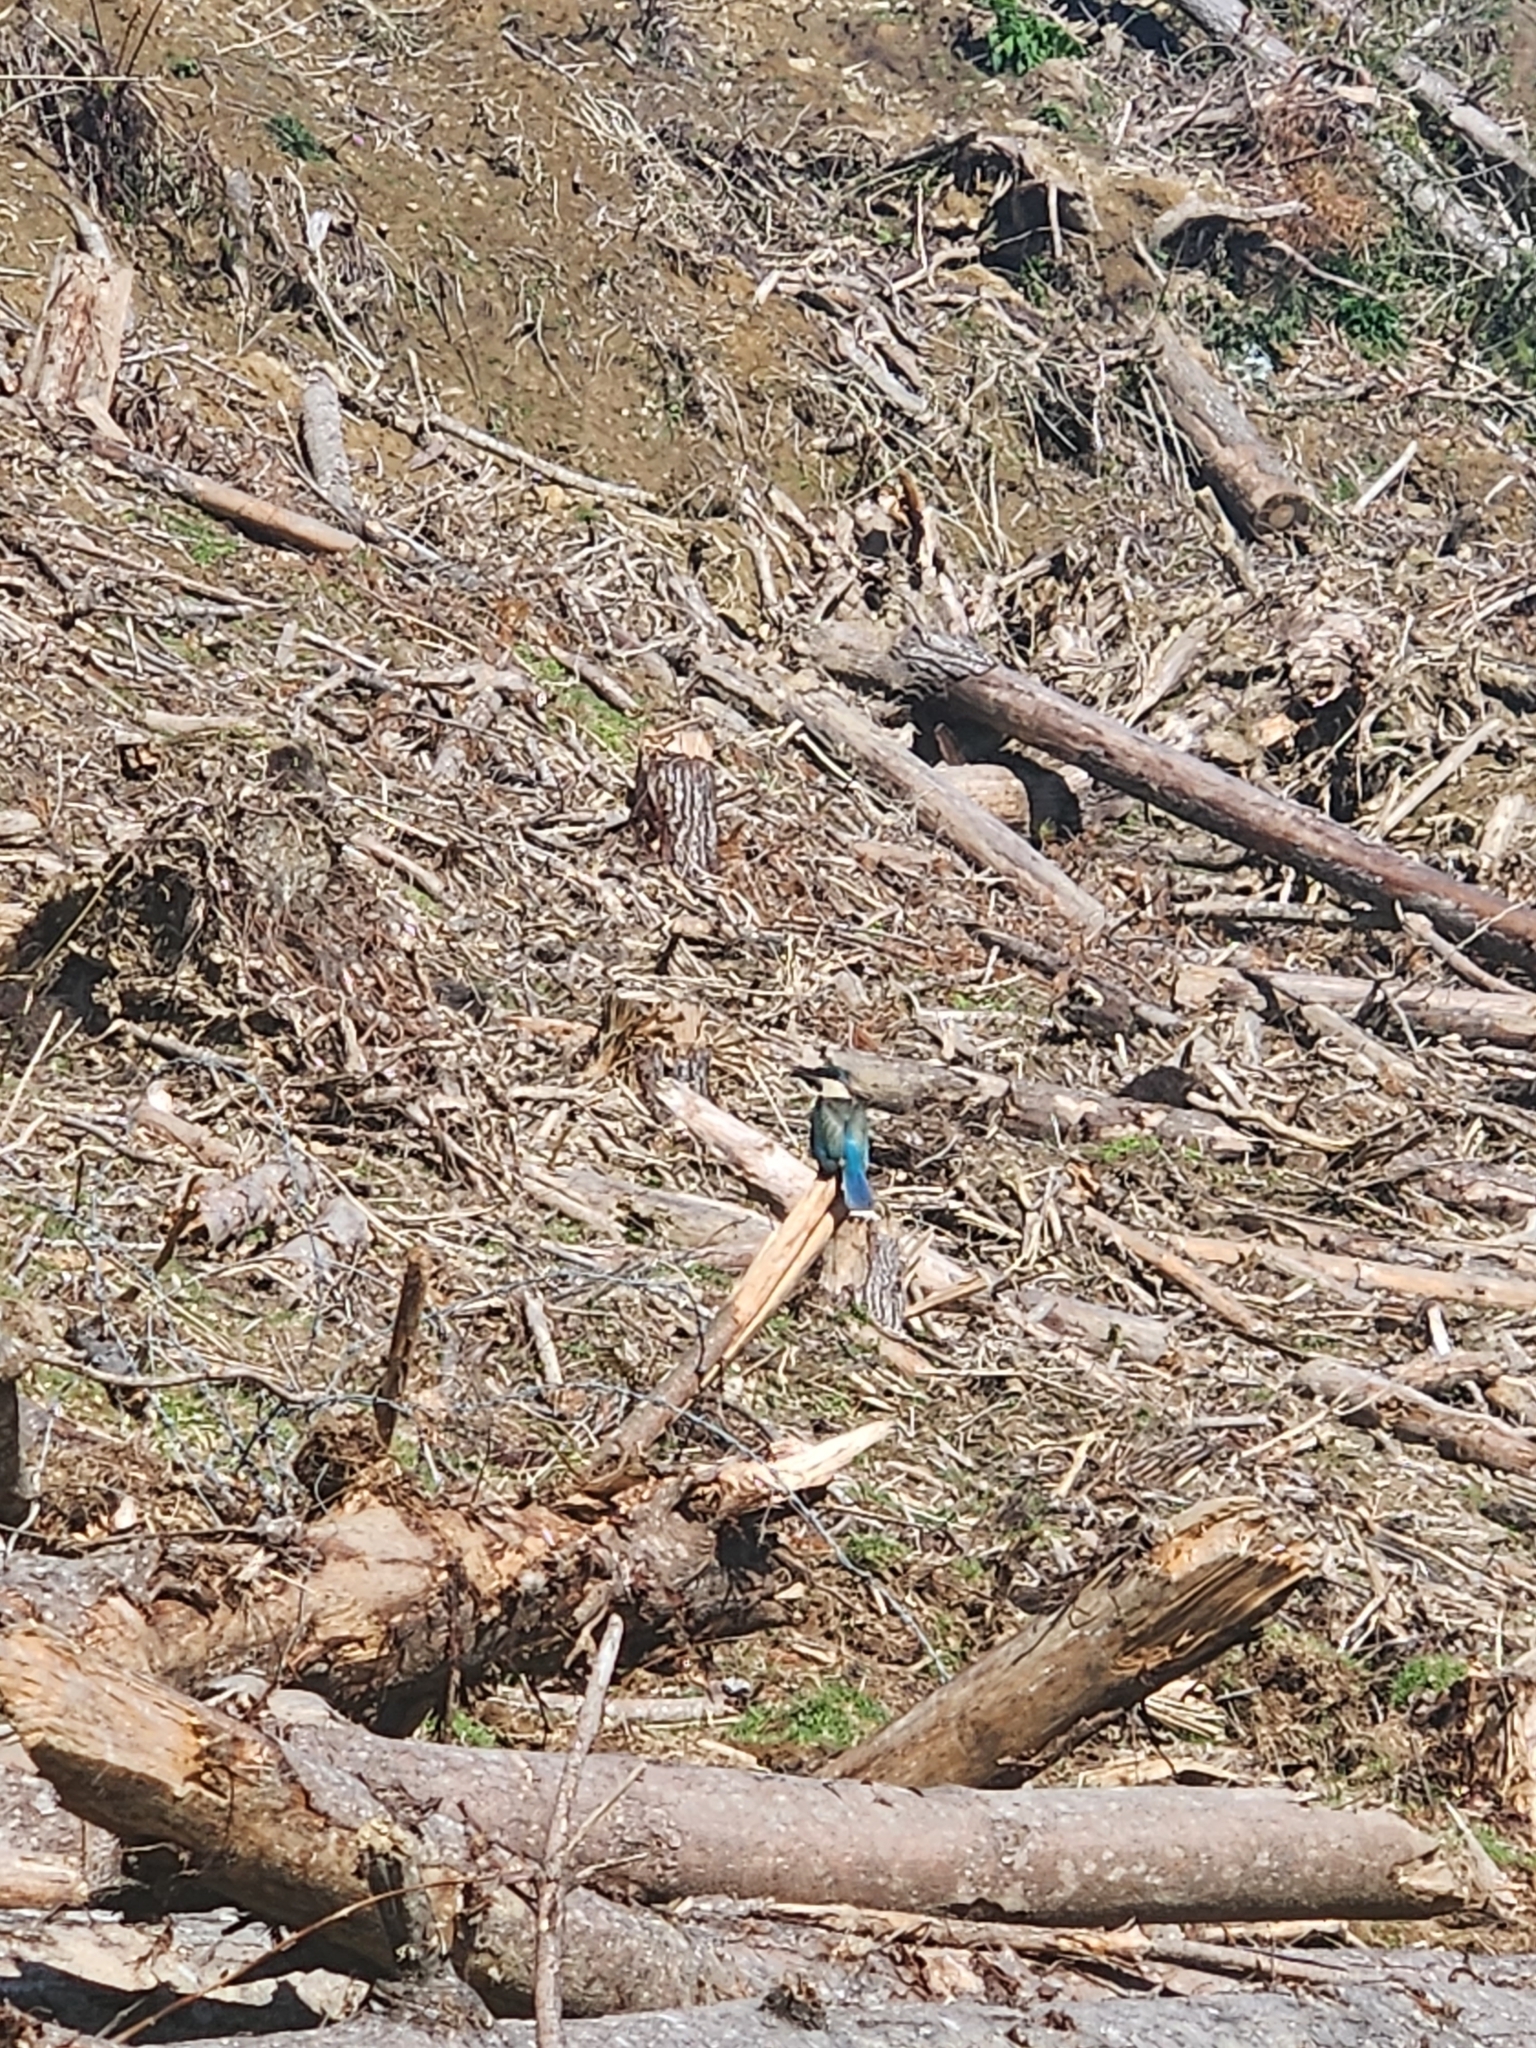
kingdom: Animalia
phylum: Chordata
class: Aves
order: Coraciiformes
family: Alcedinidae
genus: Todiramphus
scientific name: Todiramphus sanctus
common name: Sacred kingfisher
